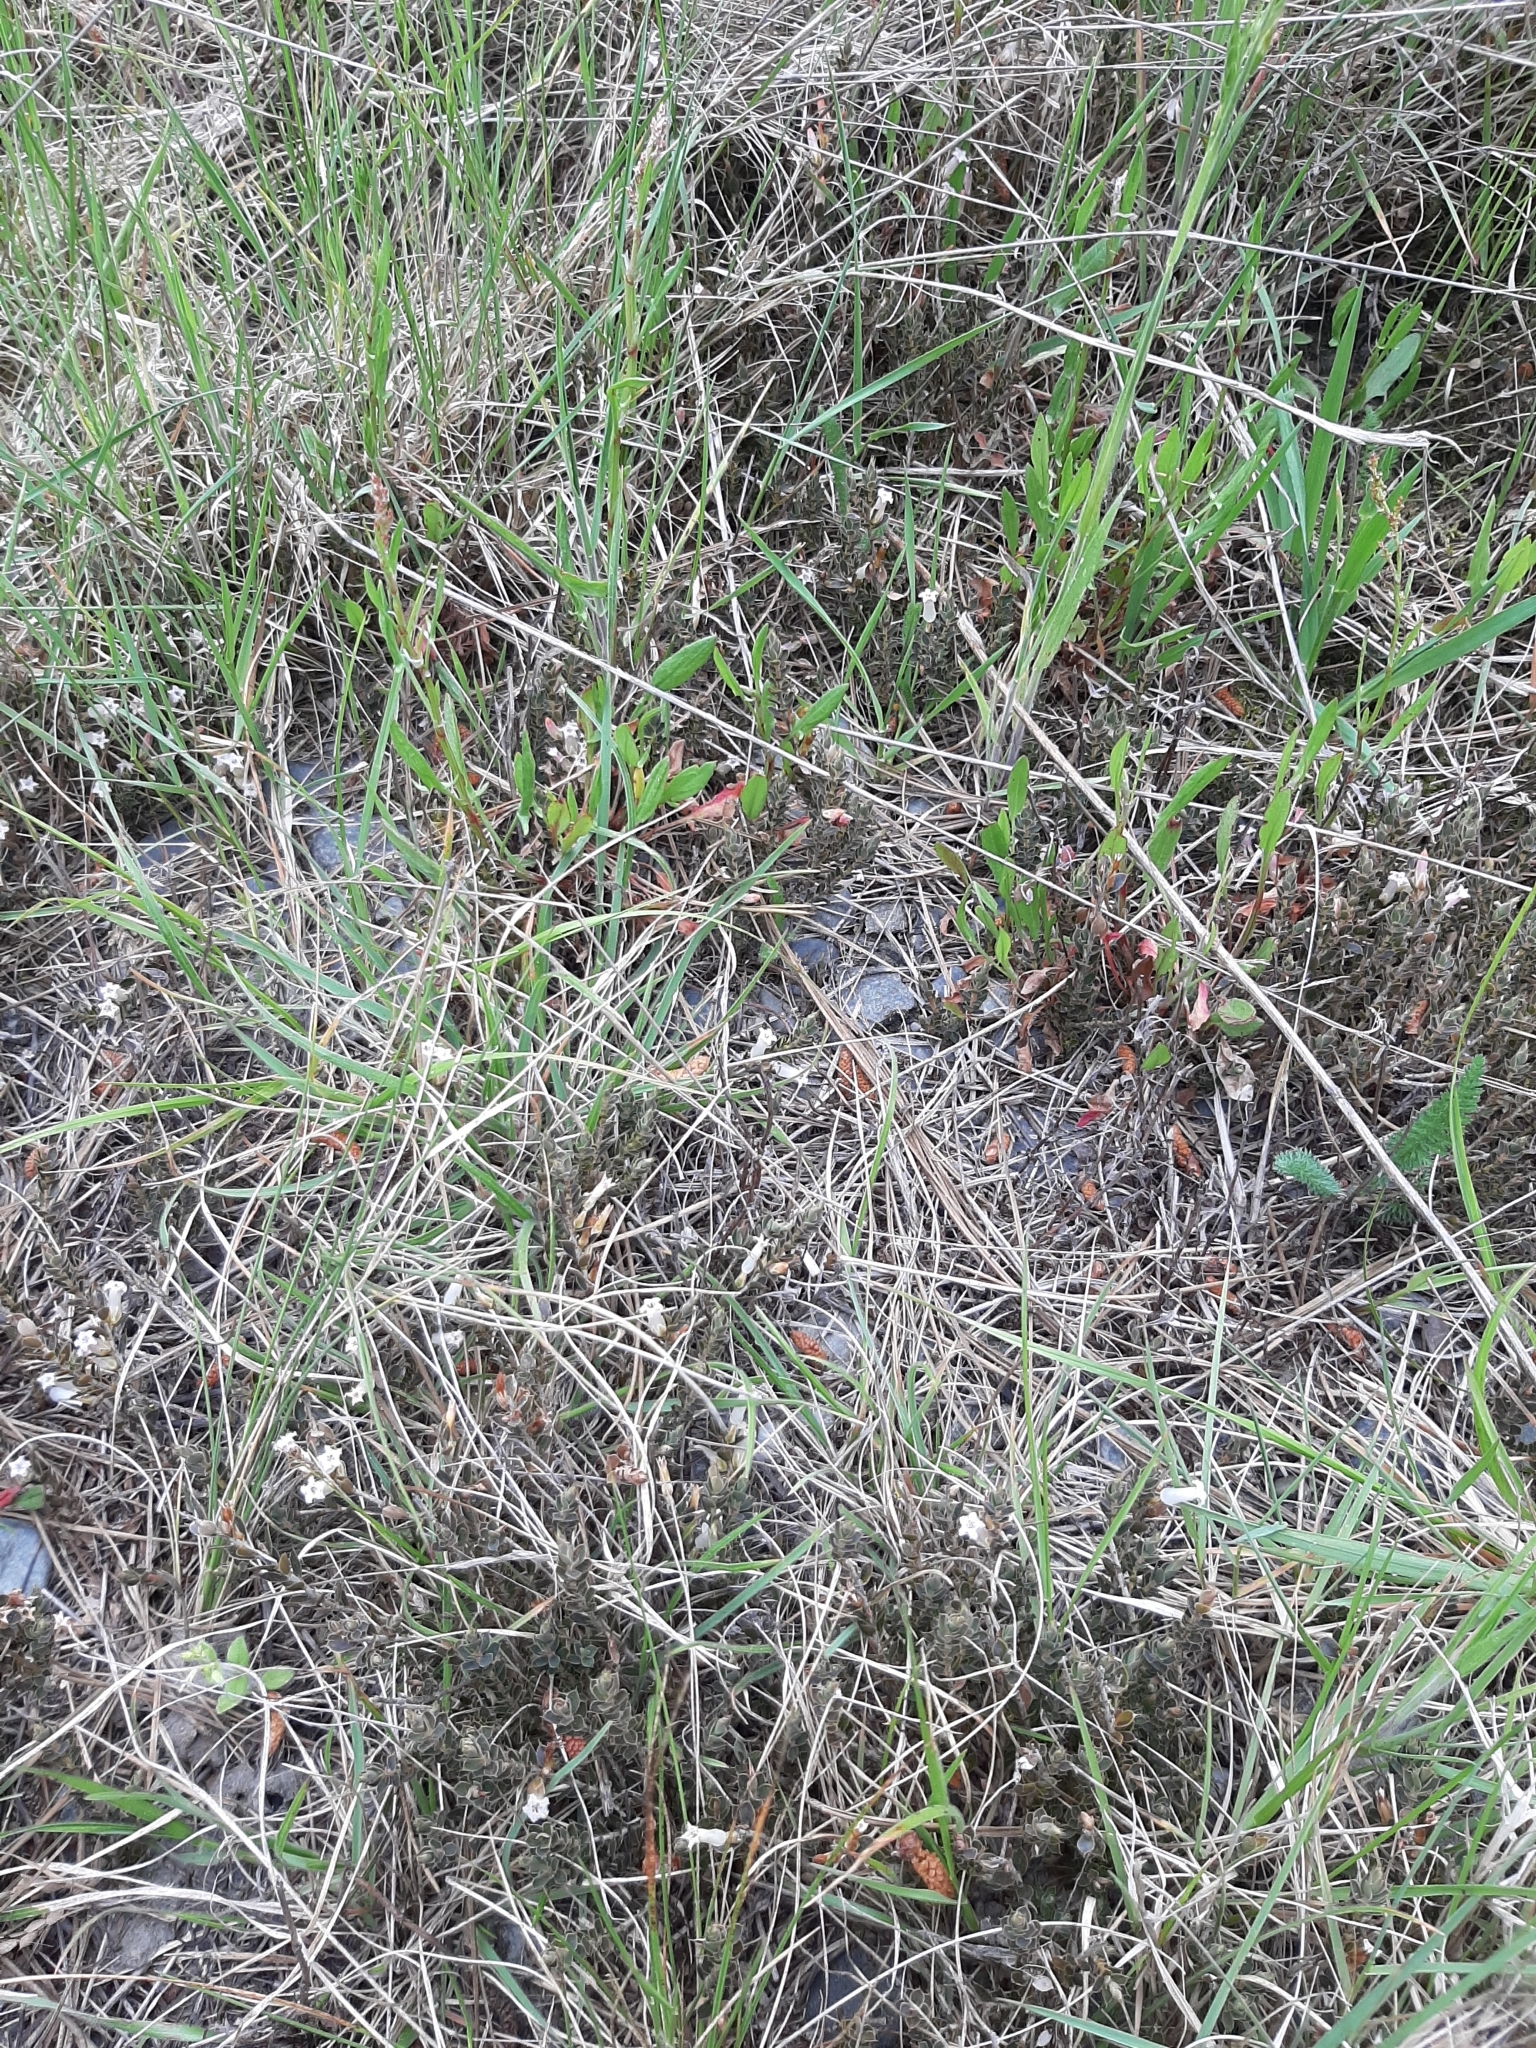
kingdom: Plantae
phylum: Tracheophyta
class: Magnoliopsida
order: Ericales
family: Ericaceae
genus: Styphelia
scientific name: Styphelia nesophila
